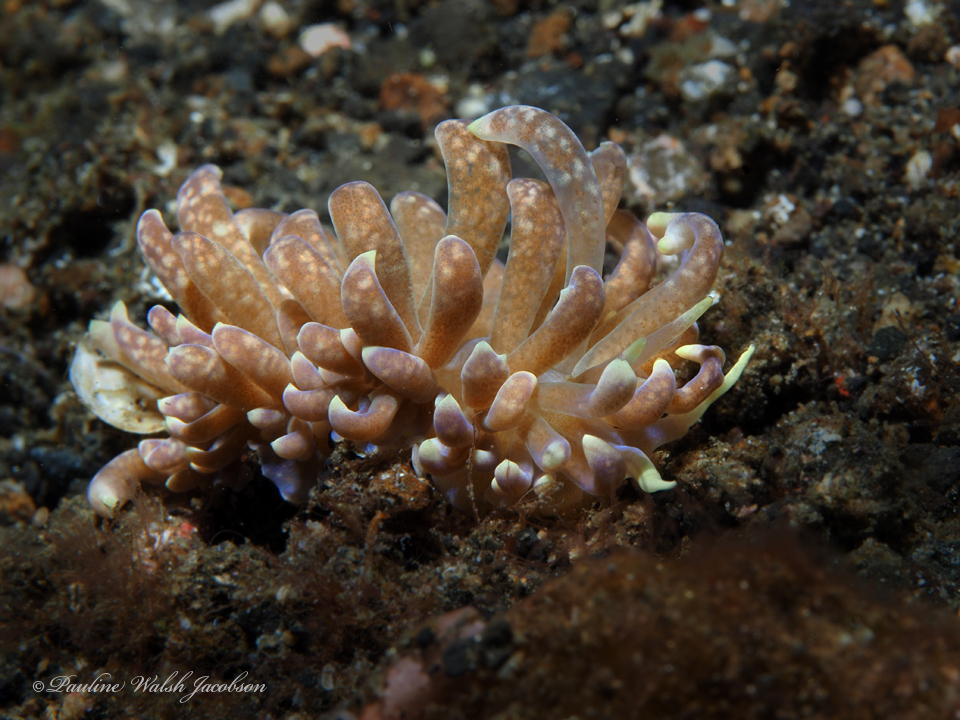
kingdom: Animalia
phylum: Mollusca
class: Gastropoda
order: Nudibranchia
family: Myrrhinidae
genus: Phyllodesmium
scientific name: Phyllodesmium magnum
